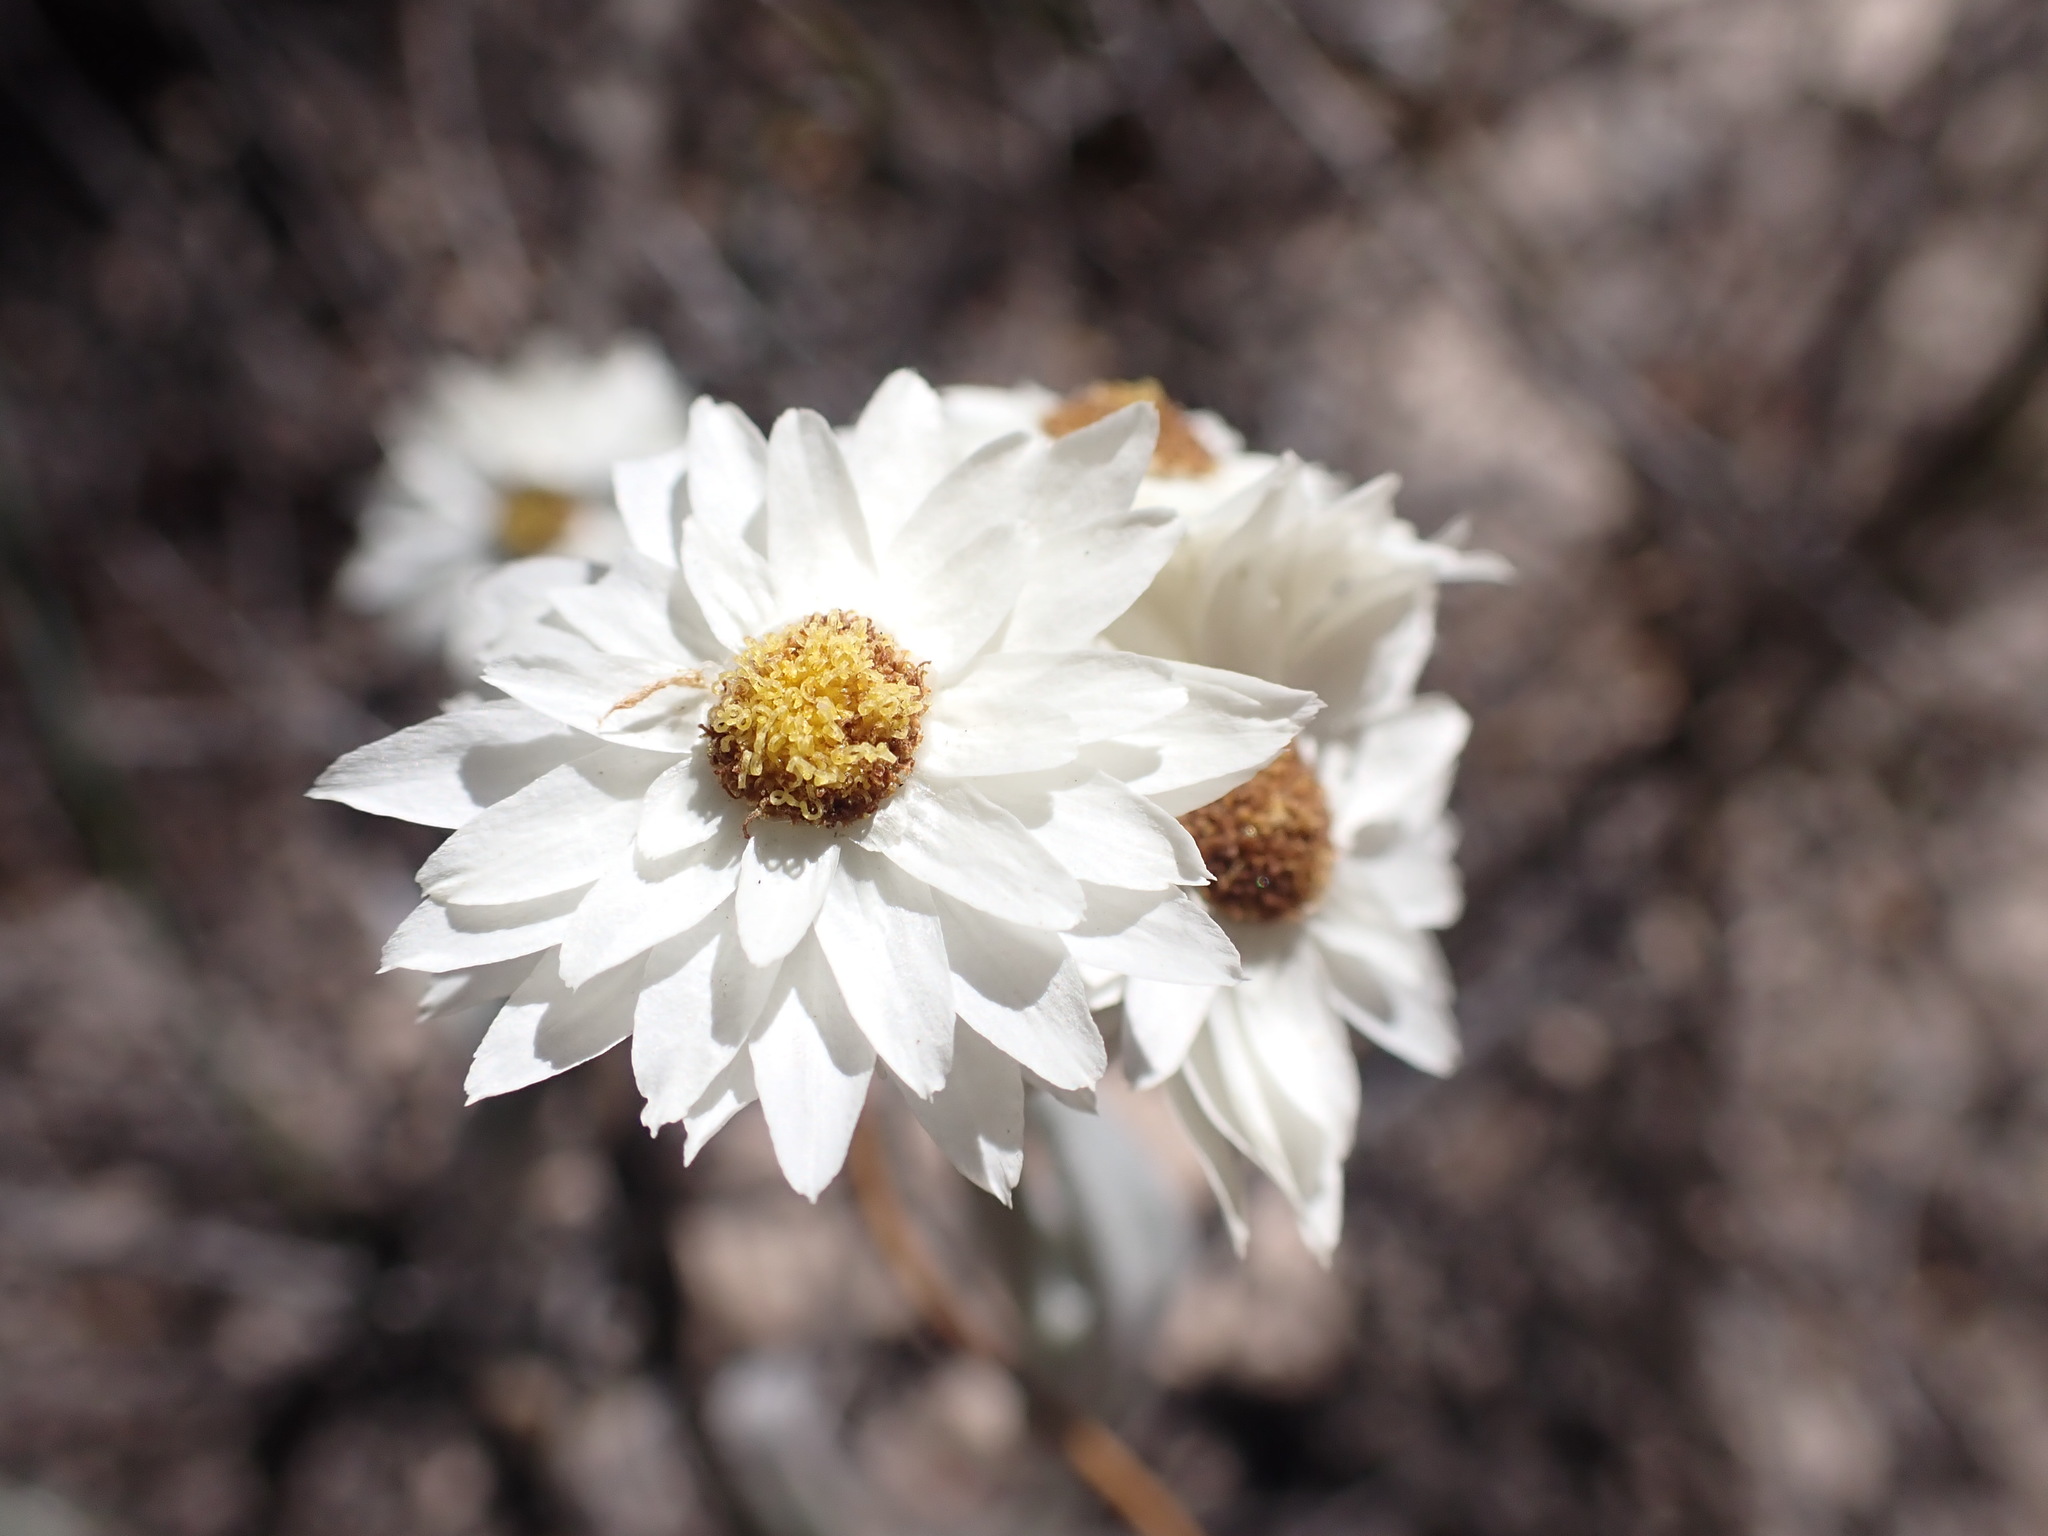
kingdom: Plantae
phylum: Tracheophyta
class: Magnoliopsida
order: Asterales
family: Asteraceae
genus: Argentipallium
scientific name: Argentipallium blandowskianum
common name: Woolly everlasting
